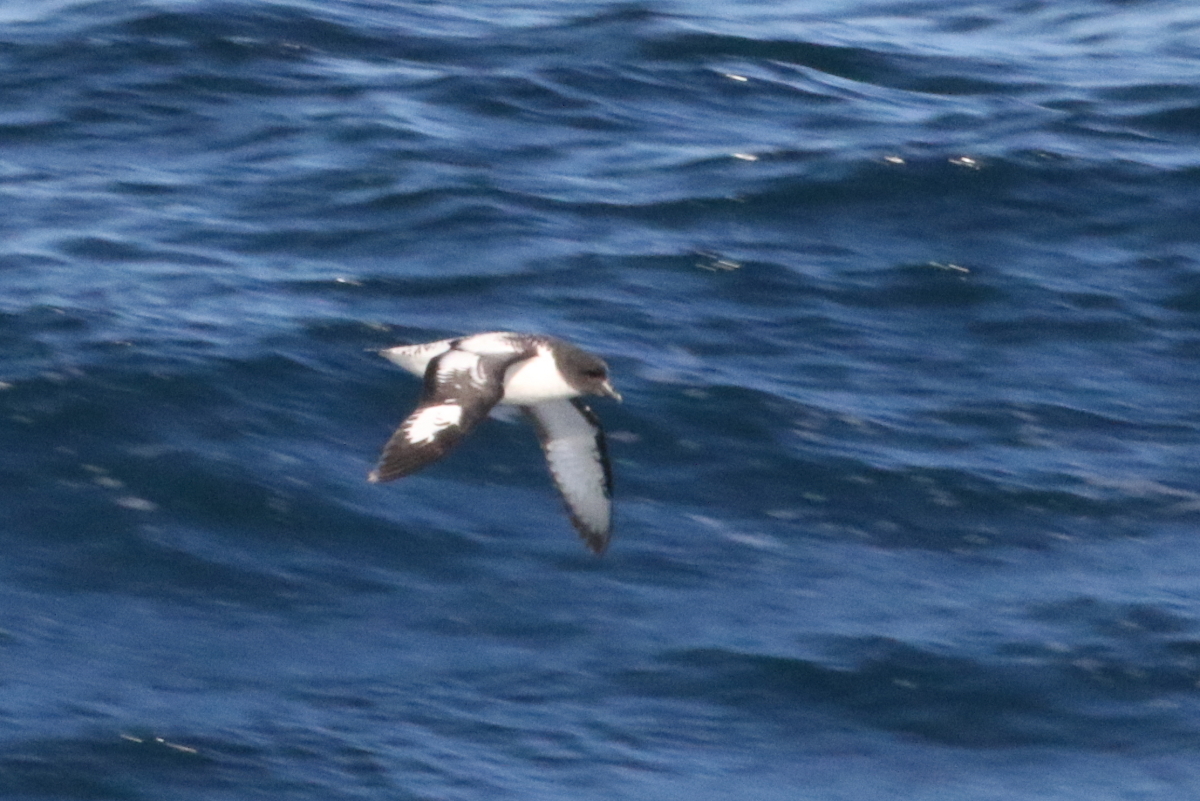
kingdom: Animalia
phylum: Chordata
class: Aves
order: Procellariiformes
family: Procellariidae
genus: Daption
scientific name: Daption capense
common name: Cape petrel
